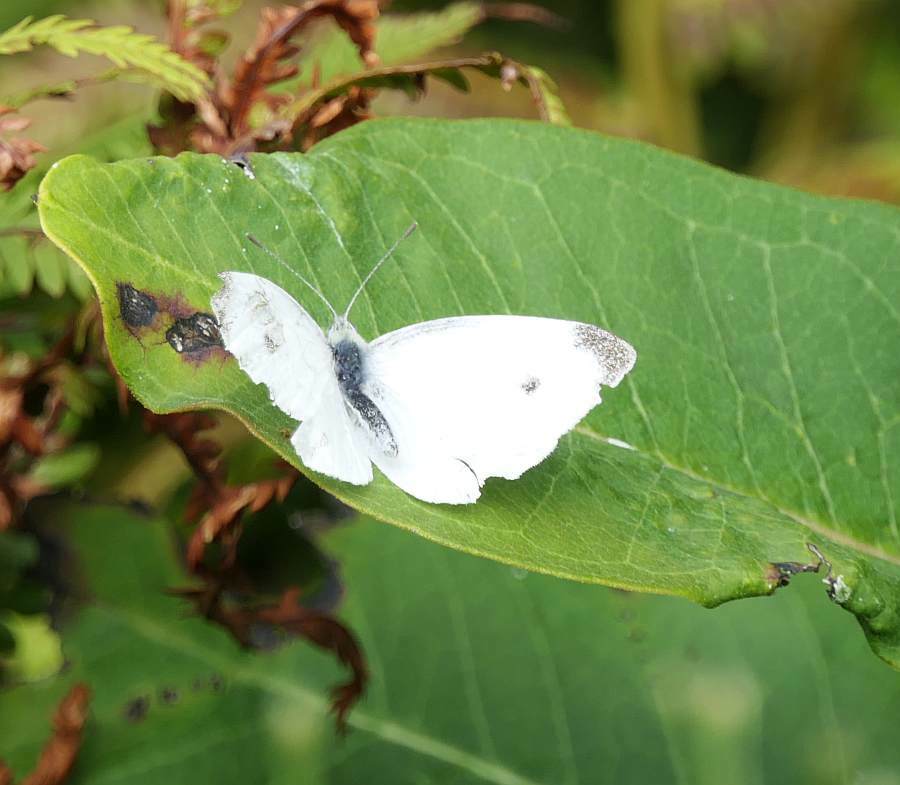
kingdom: Animalia
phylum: Arthropoda
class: Insecta
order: Lepidoptera
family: Pieridae
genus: Pieris
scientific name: Pieris rapae
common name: Small white
